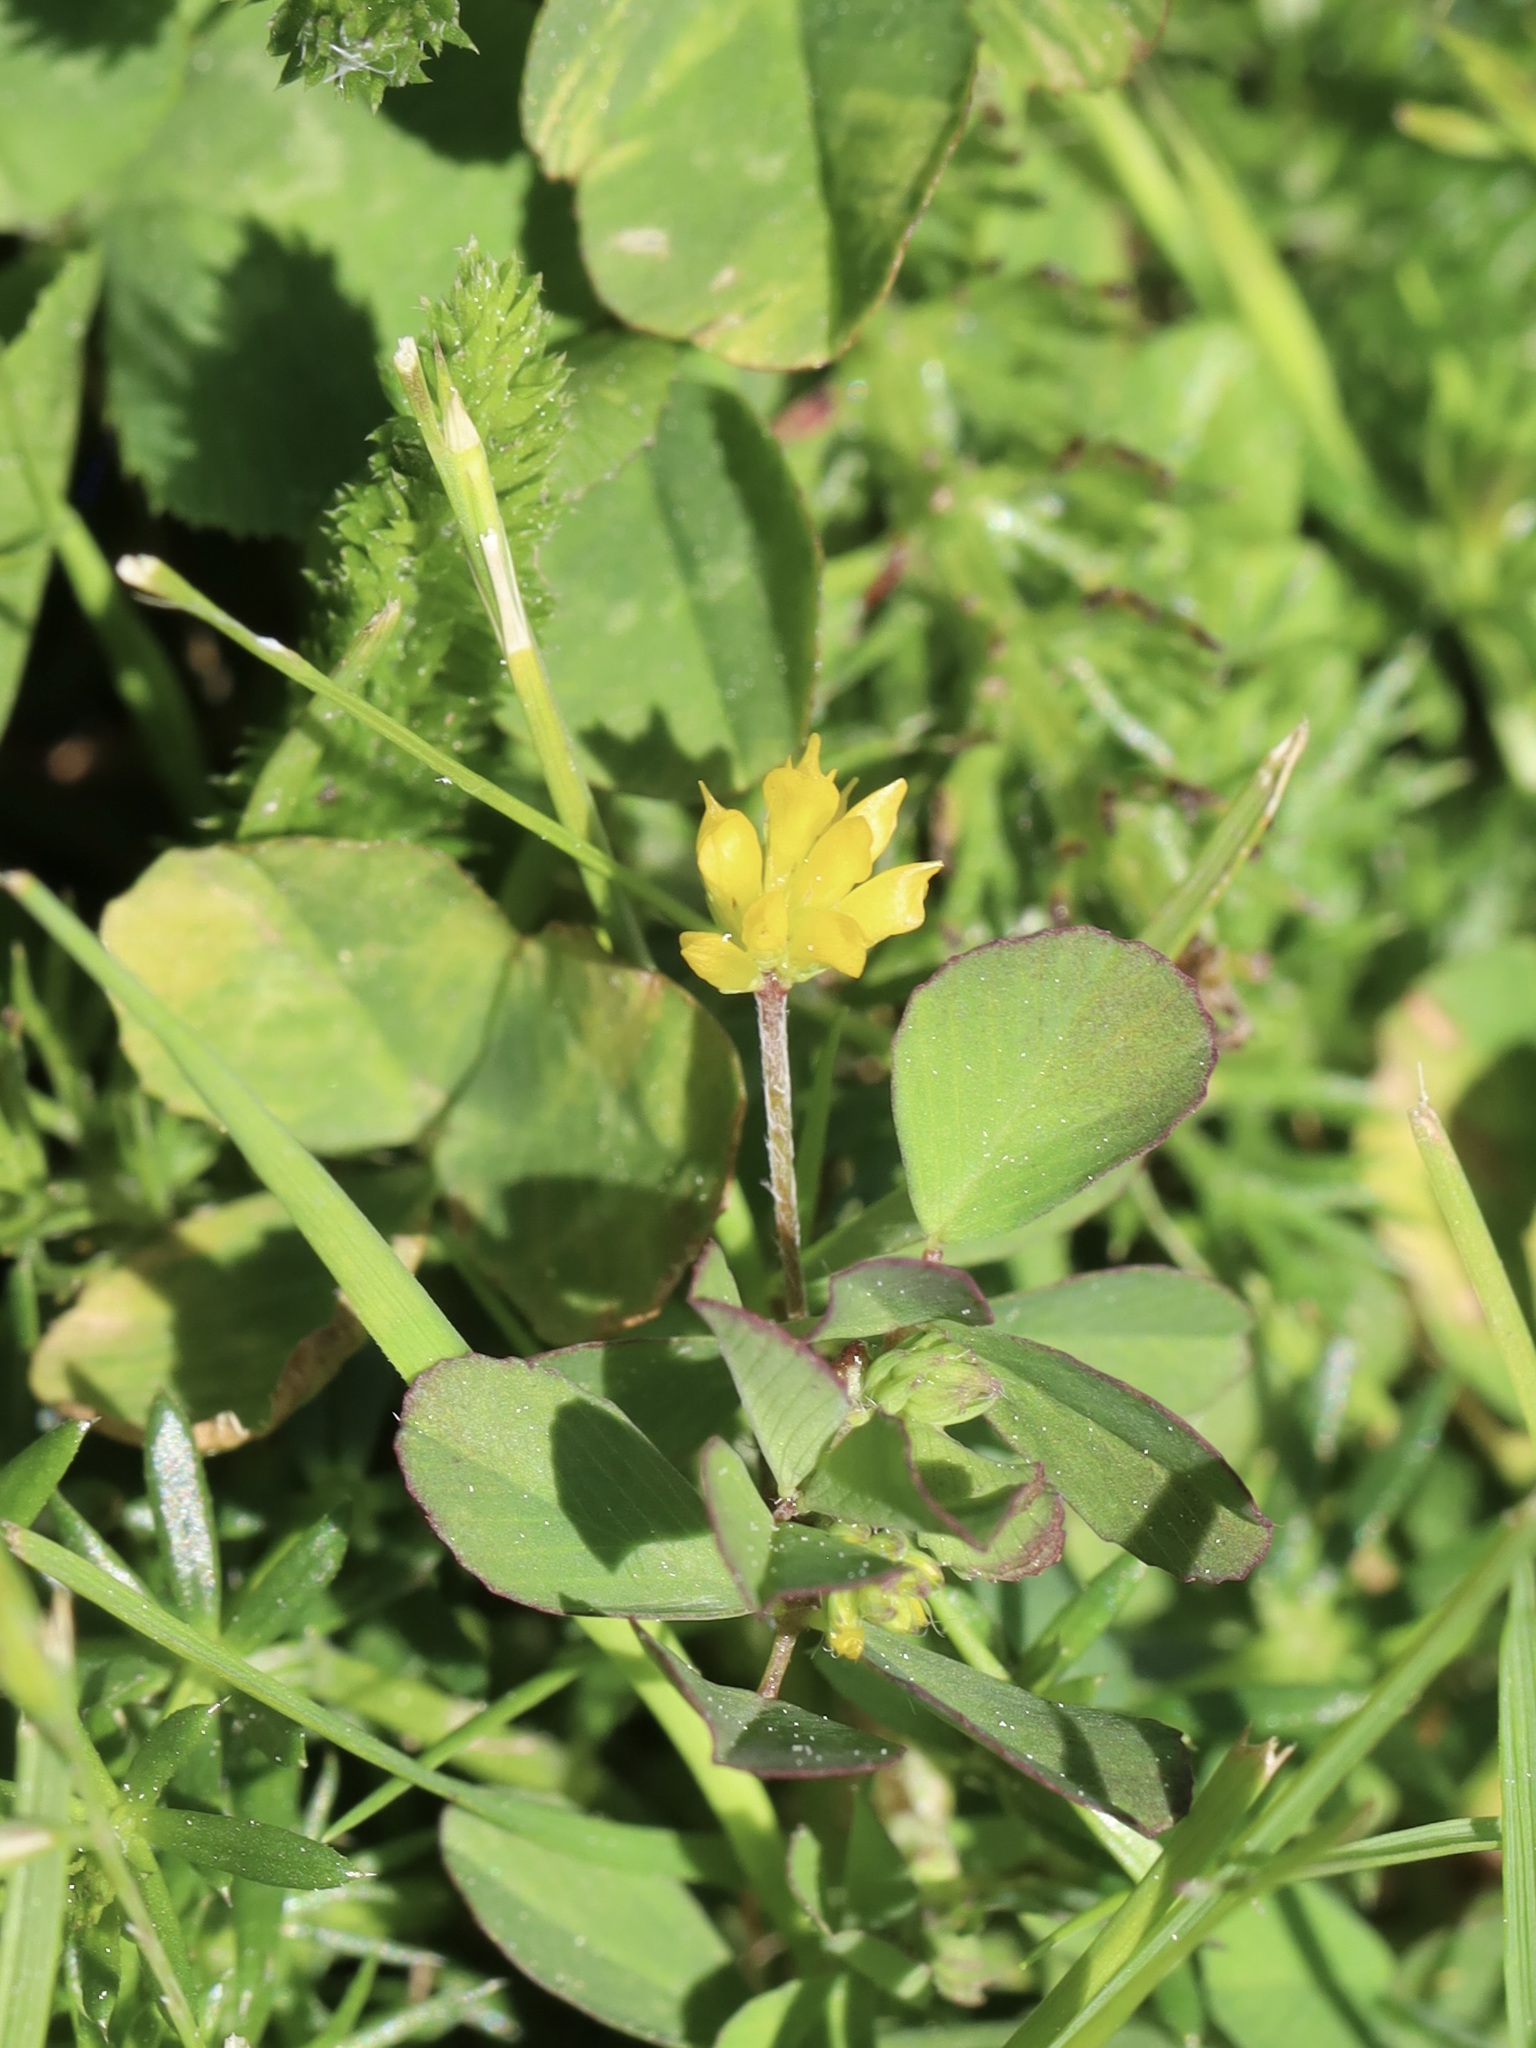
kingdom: Plantae
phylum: Tracheophyta
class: Magnoliopsida
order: Fabales
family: Fabaceae
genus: Trifolium
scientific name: Trifolium dubium
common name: Suckling clover
